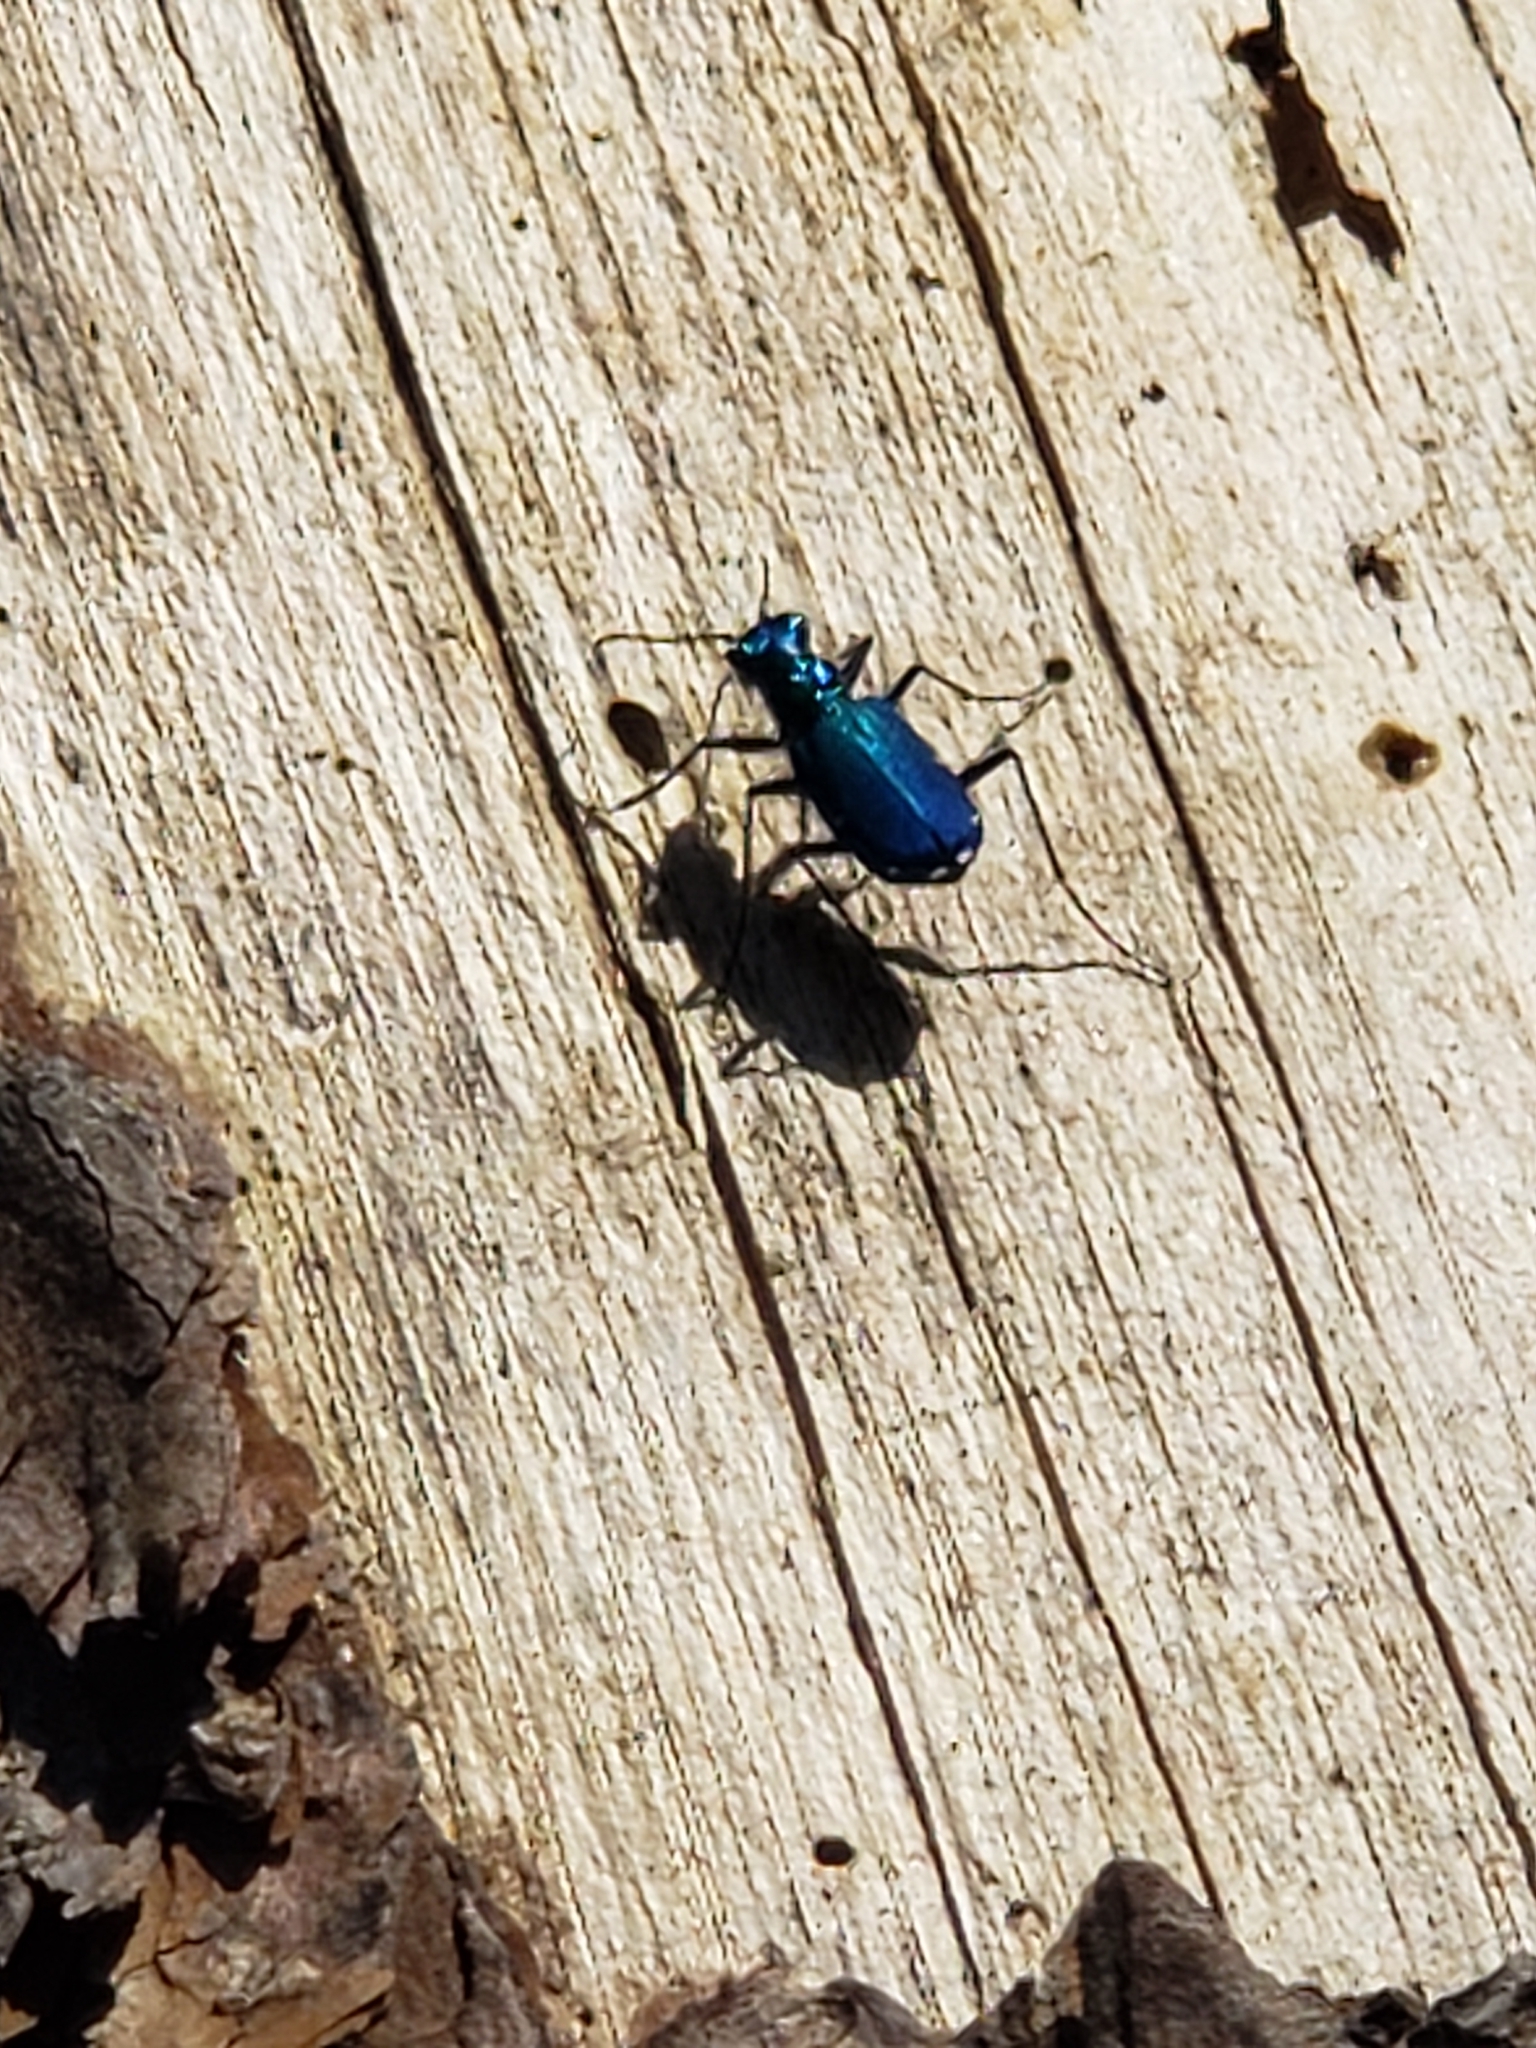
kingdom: Animalia
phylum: Arthropoda
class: Insecta
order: Coleoptera
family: Carabidae
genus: Cicindela
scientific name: Cicindela sexguttata
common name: Six-spotted tiger beetle
